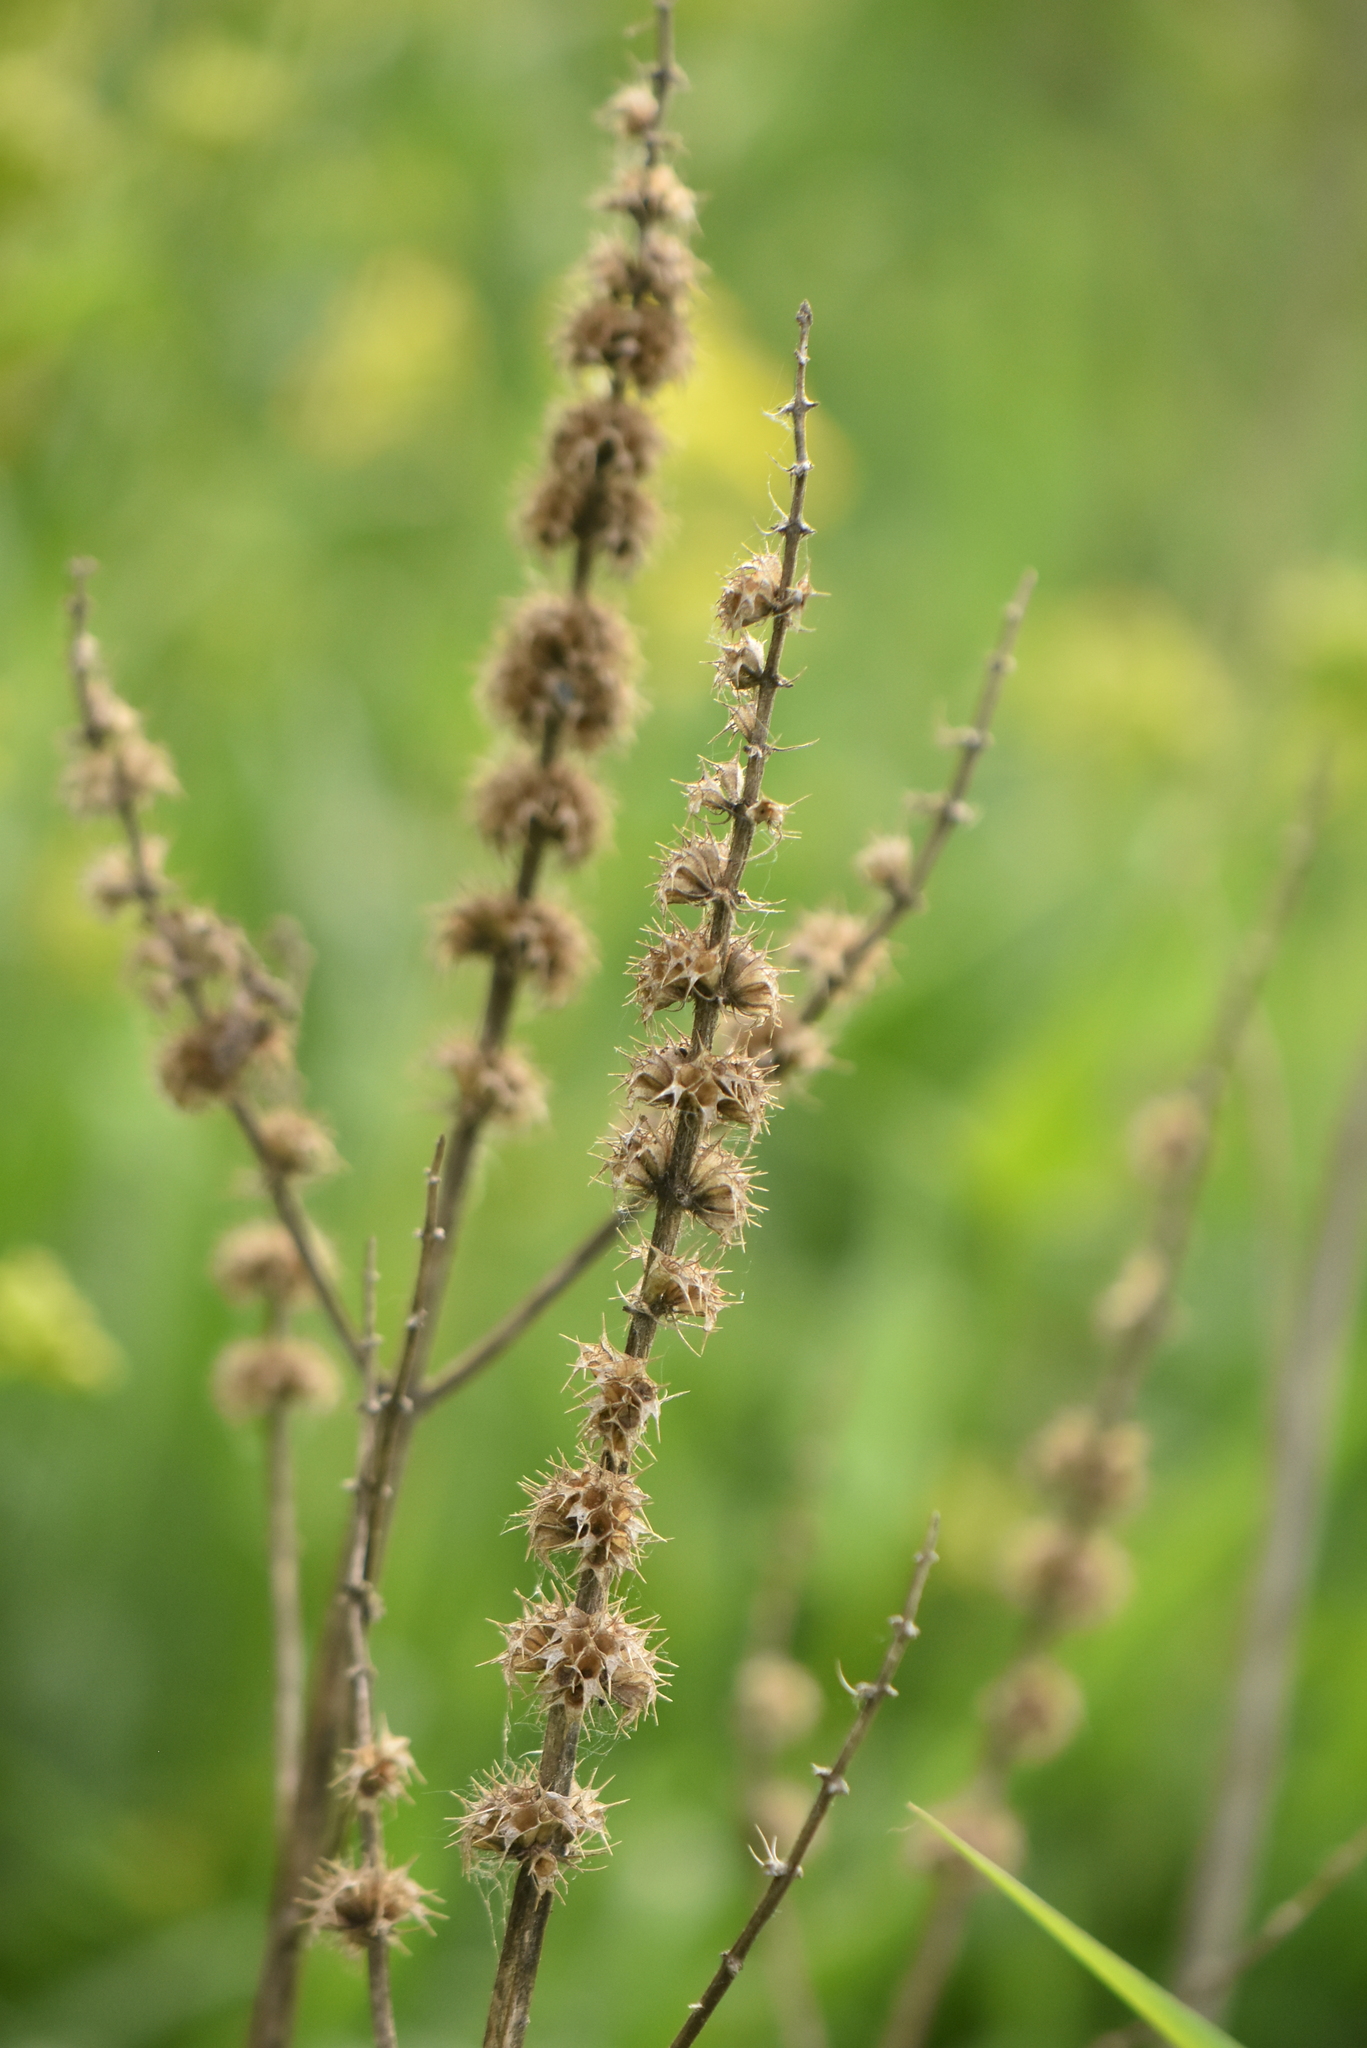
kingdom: Plantae
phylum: Tracheophyta
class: Magnoliopsida
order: Lamiales
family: Lamiaceae
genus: Leonurus
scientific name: Leonurus quinquelobatus
